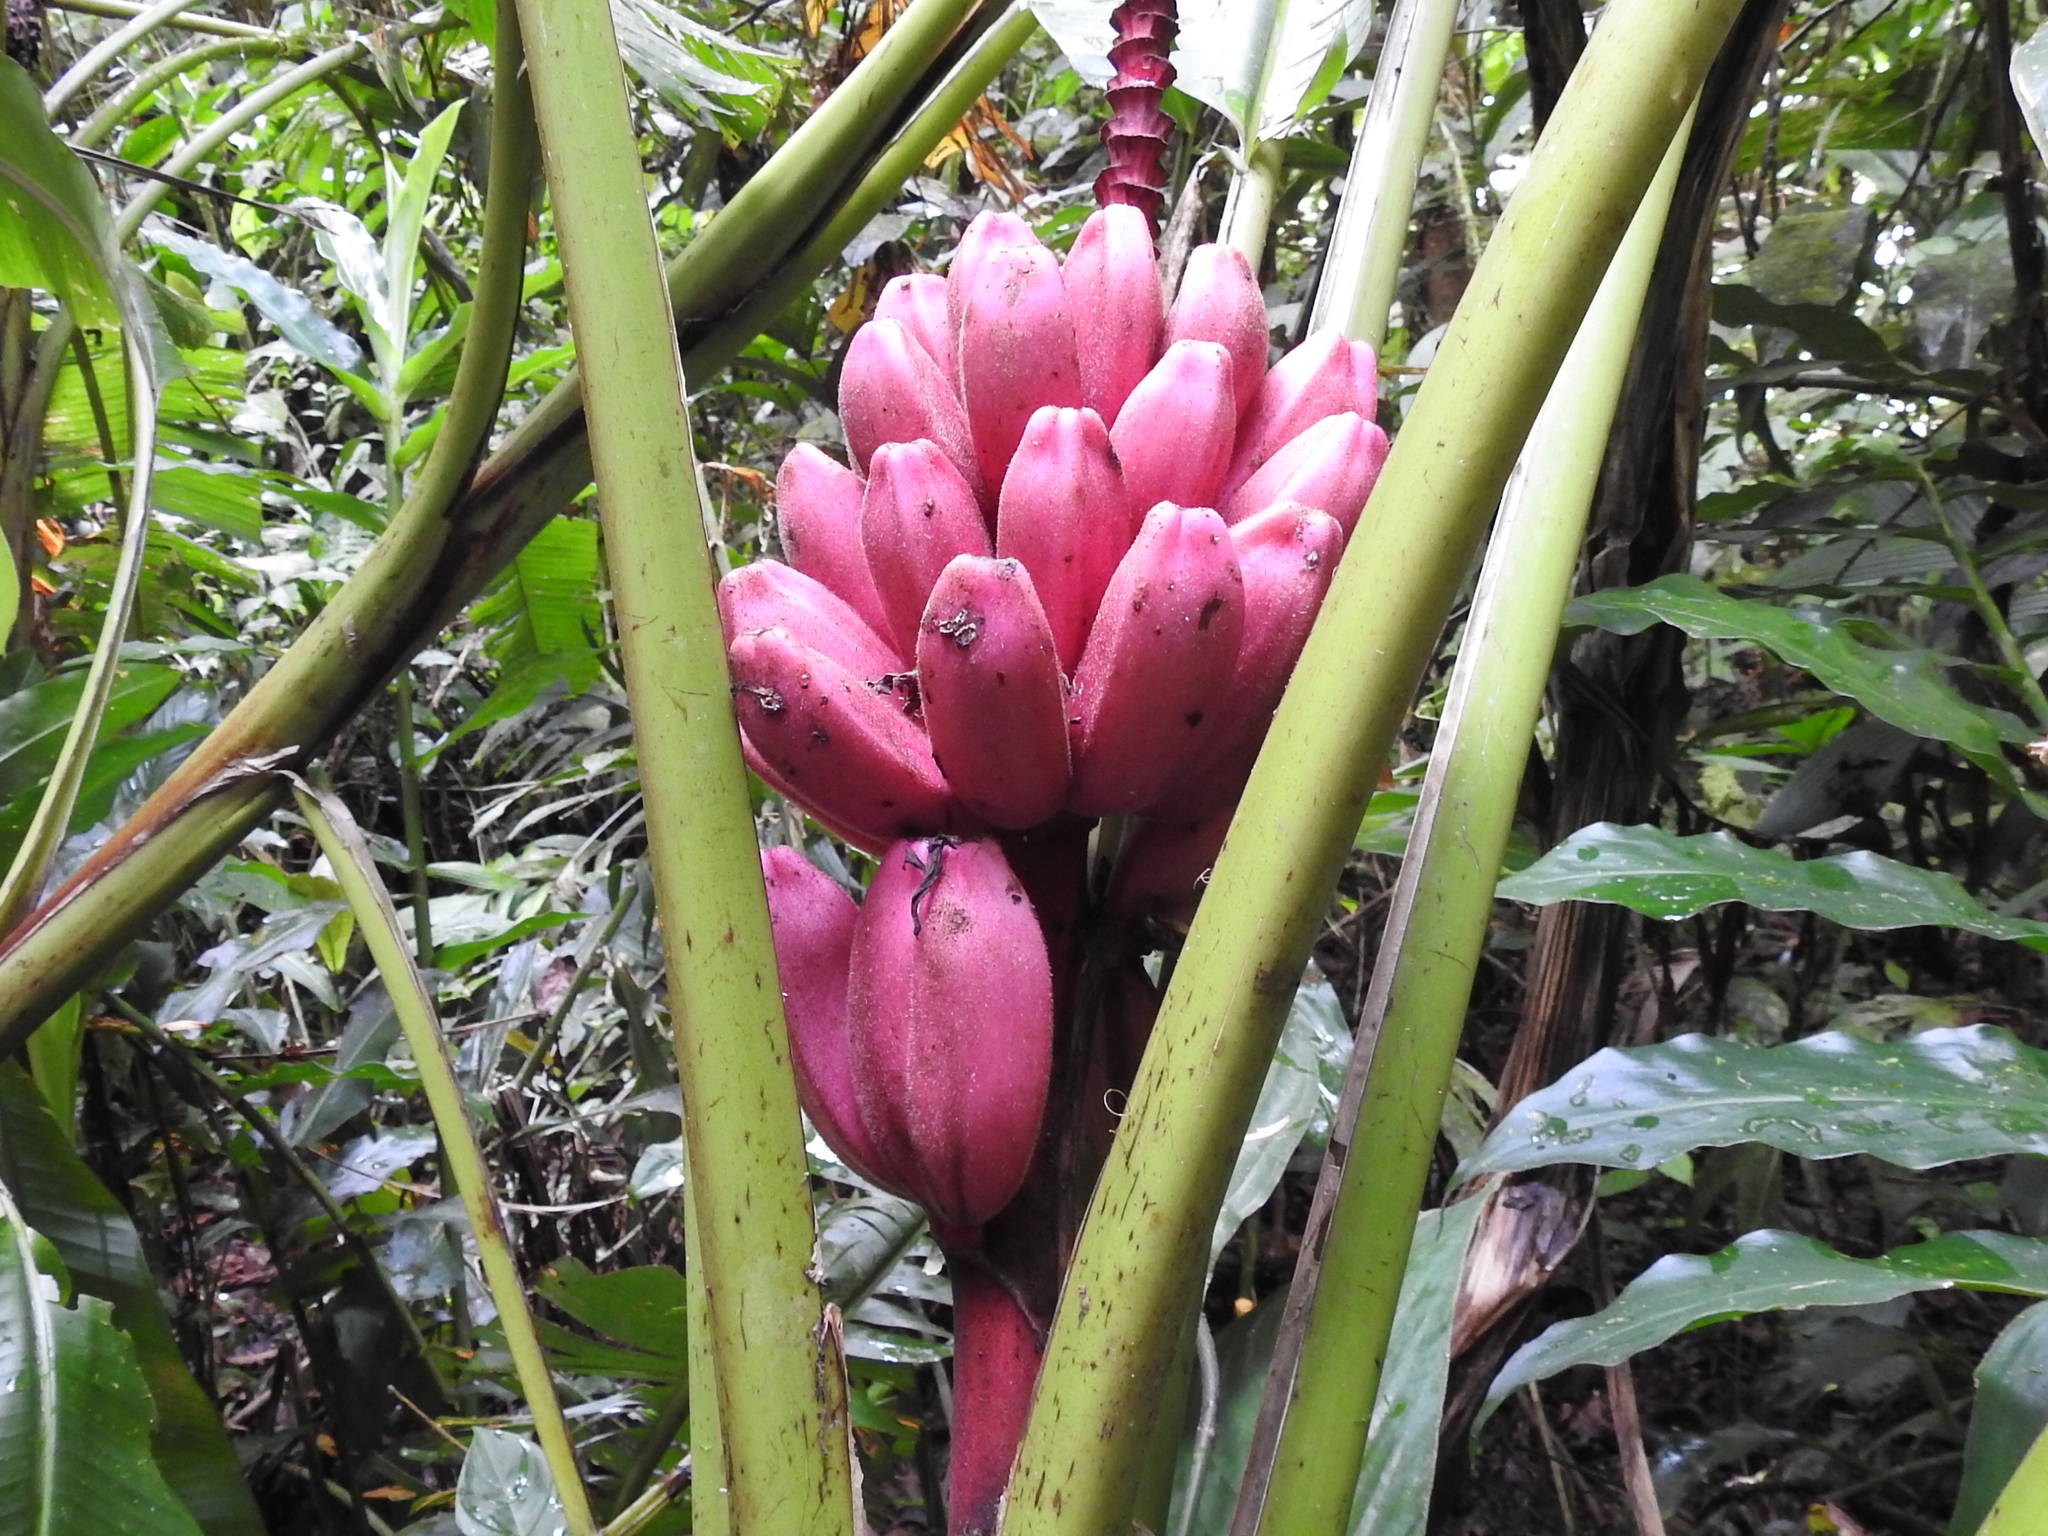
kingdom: Plantae
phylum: Tracheophyta
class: Liliopsida
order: Zingiberales
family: Musaceae
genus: Musa
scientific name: Musa velutina
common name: Pink velvet banana
